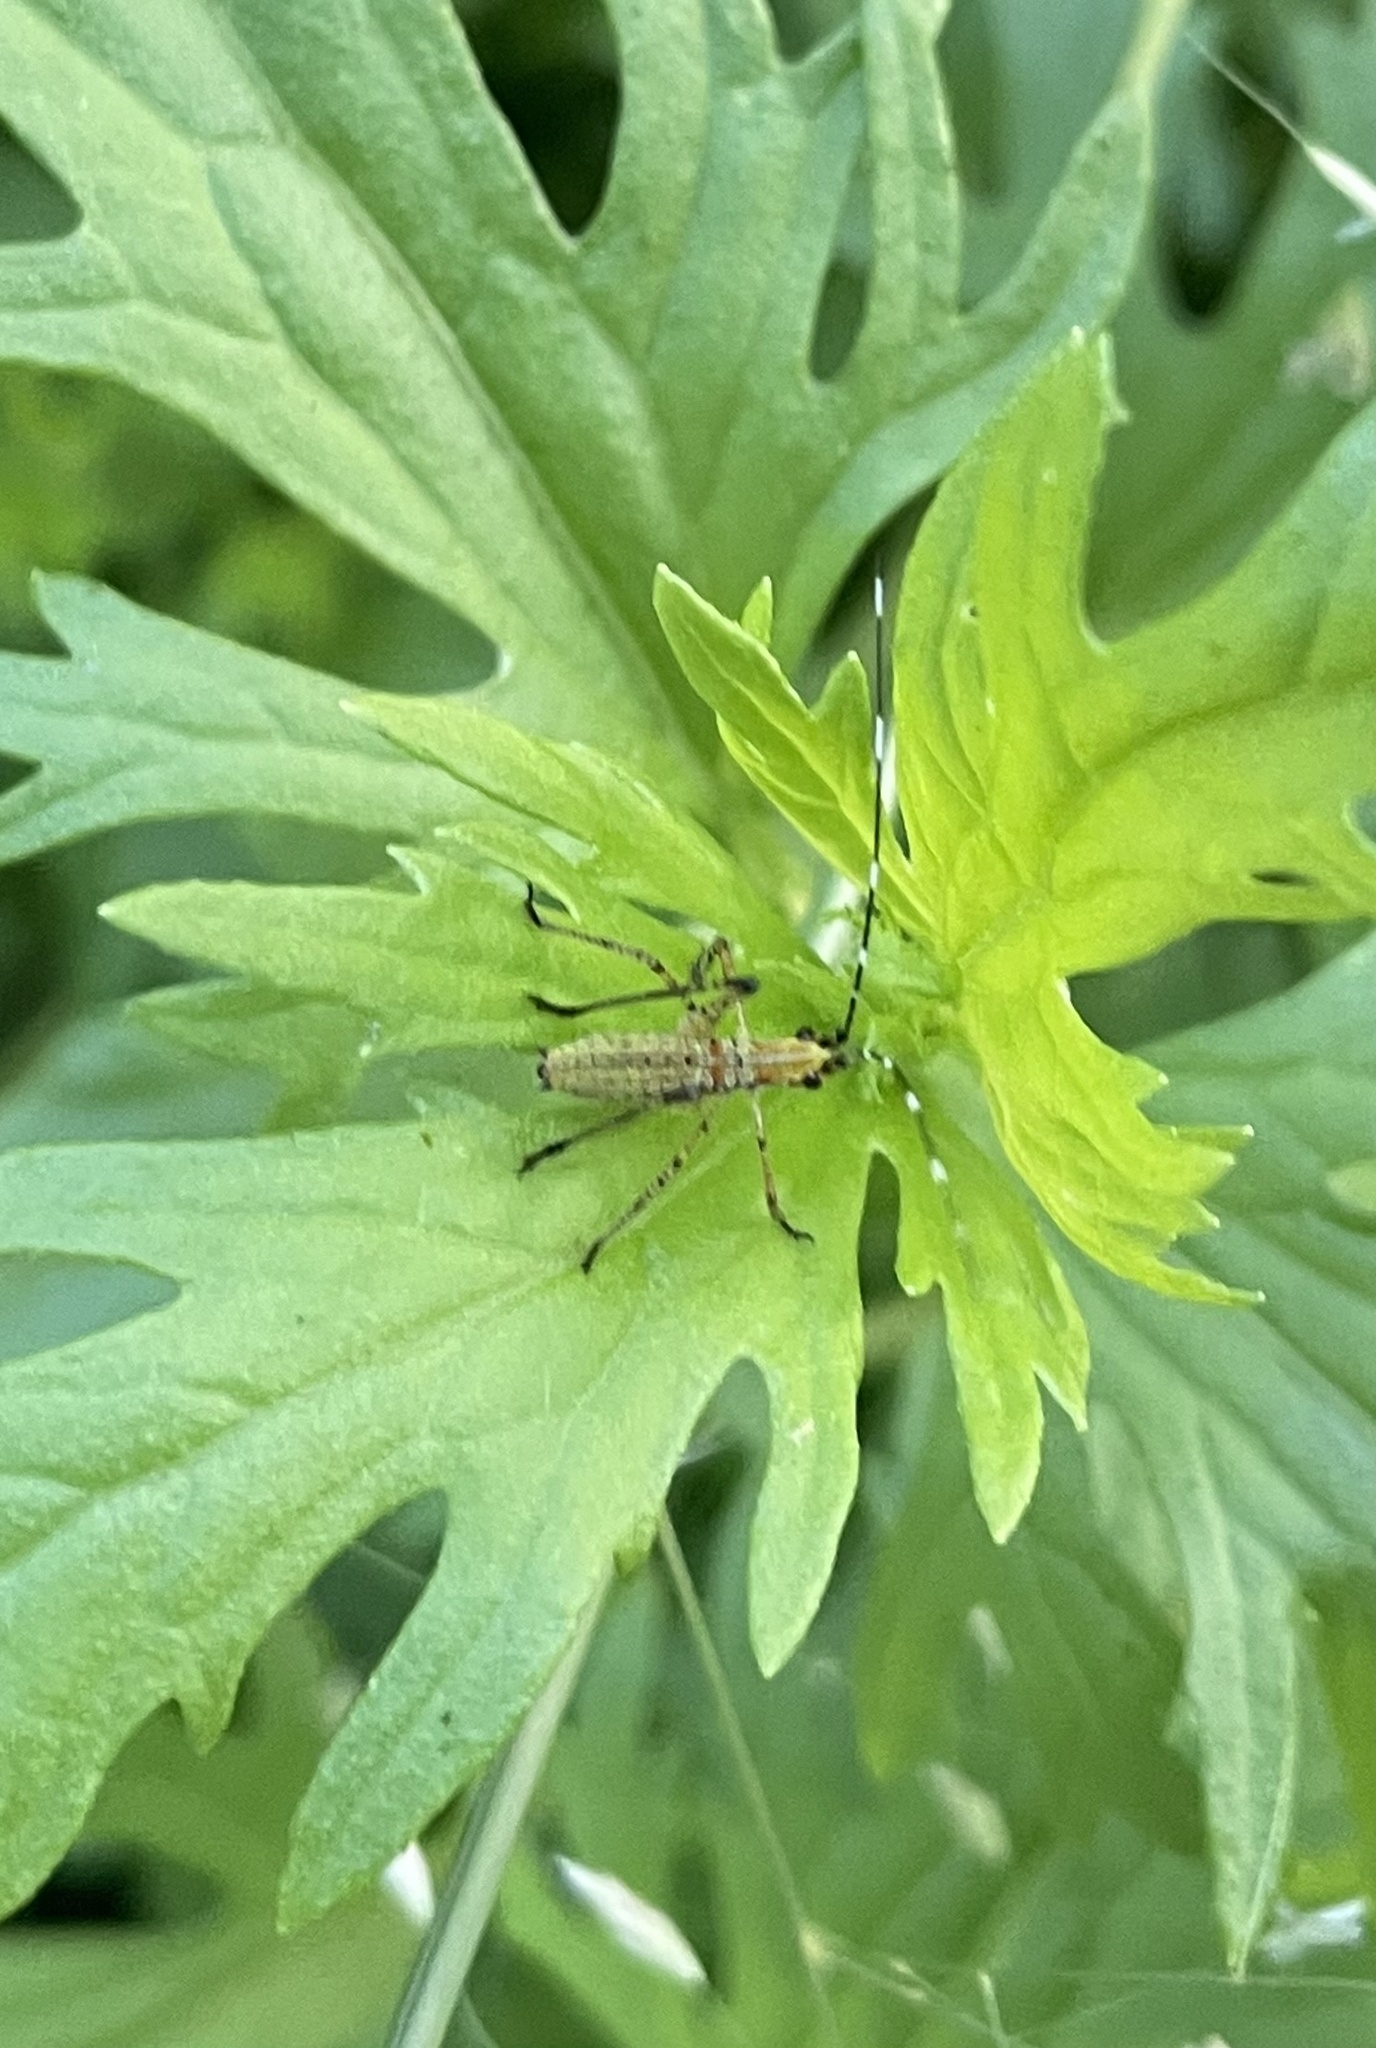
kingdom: Animalia
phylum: Arthropoda
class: Insecta
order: Orthoptera
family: Tettigoniidae
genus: Scudderia
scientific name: Scudderia furcata
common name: Fork-tailed bush katydid
